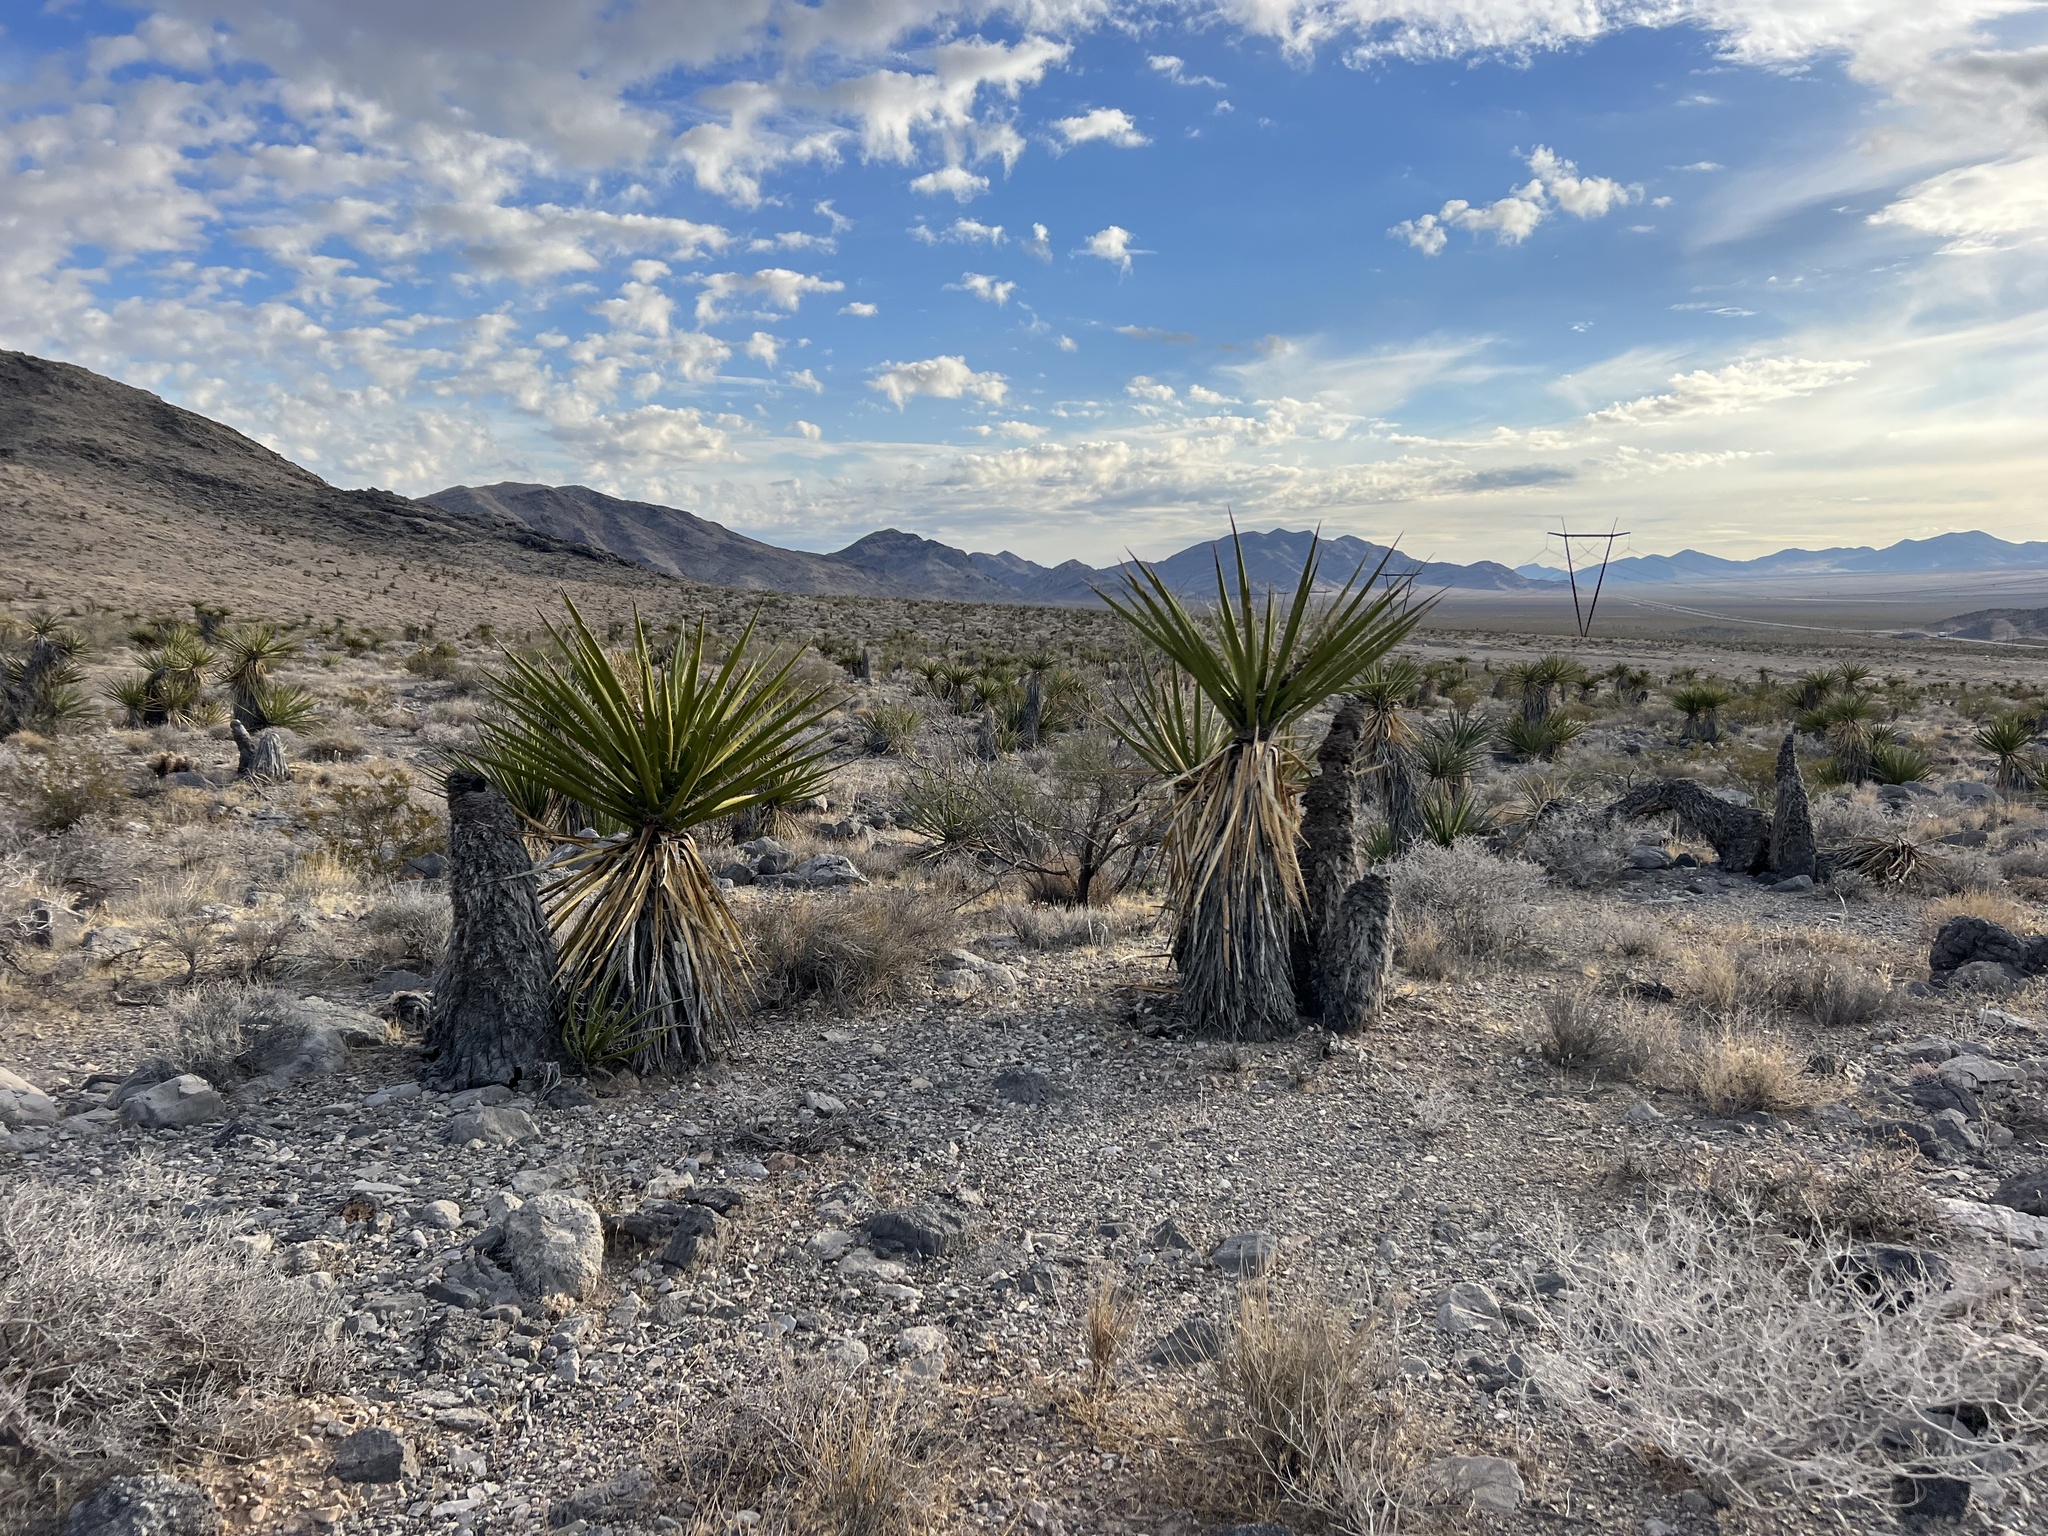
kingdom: Plantae
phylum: Tracheophyta
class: Liliopsida
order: Asparagales
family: Asparagaceae
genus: Yucca
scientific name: Yucca schidigera
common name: Mojave yucca
